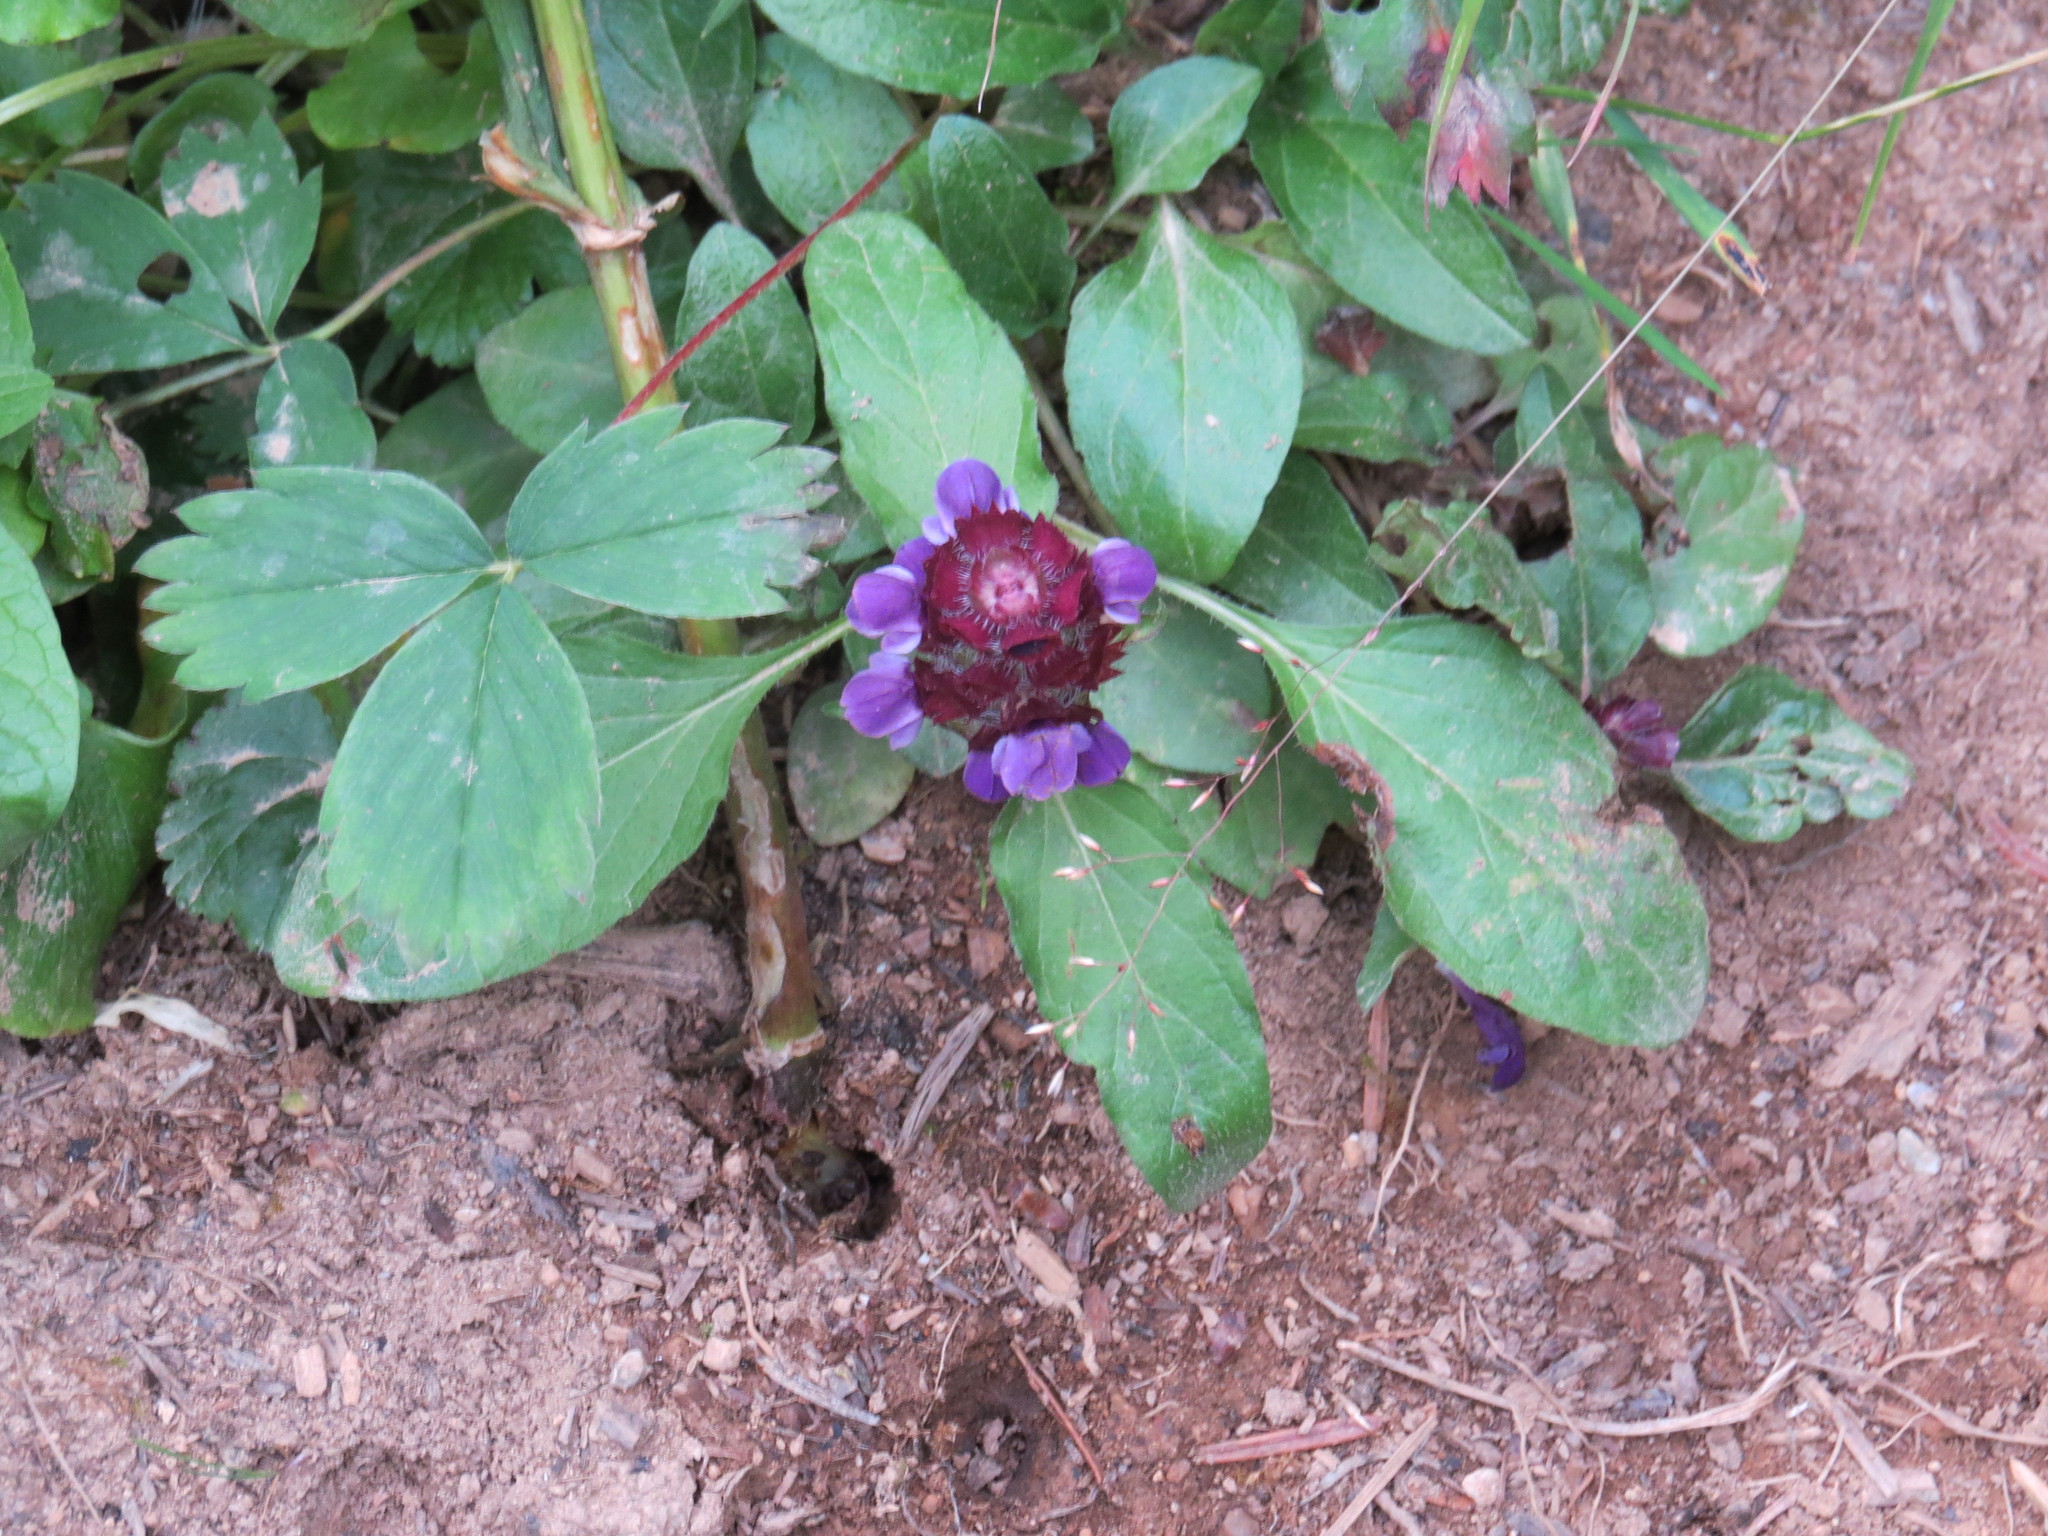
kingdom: Plantae
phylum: Tracheophyta
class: Magnoliopsida
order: Lamiales
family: Lamiaceae
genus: Prunella
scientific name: Prunella vulgaris
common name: Heal-all
